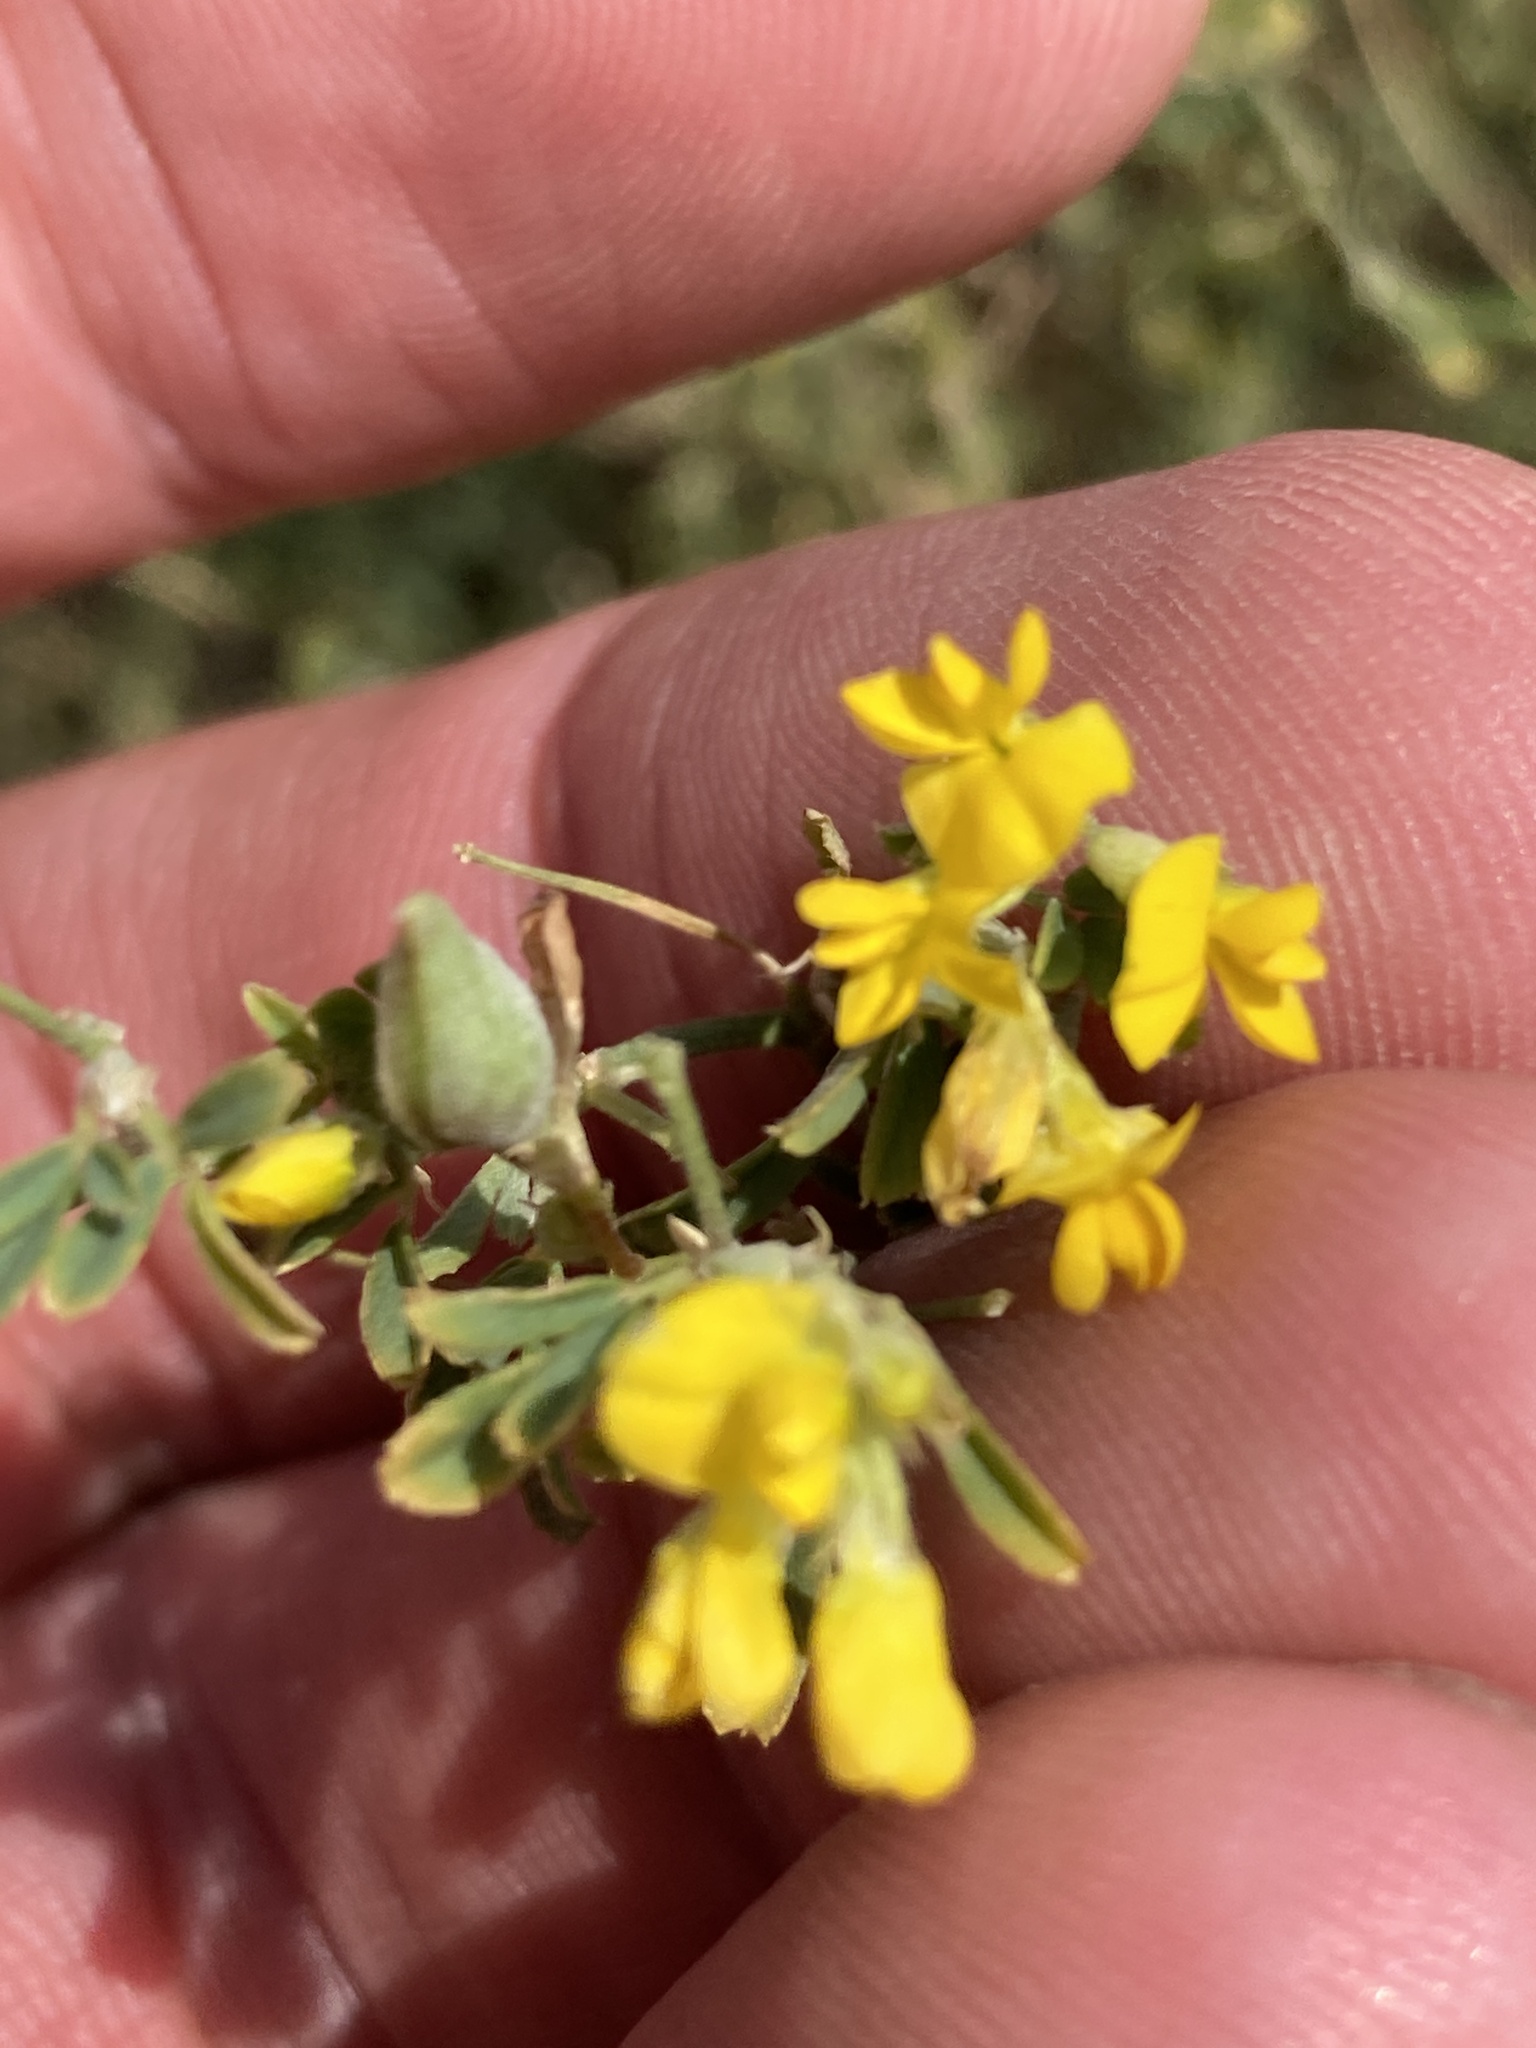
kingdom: Plantae
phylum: Tracheophyta
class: Magnoliopsida
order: Fabales
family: Fabaceae
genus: Medicago
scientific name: Medicago falcata
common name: Sickle medick
